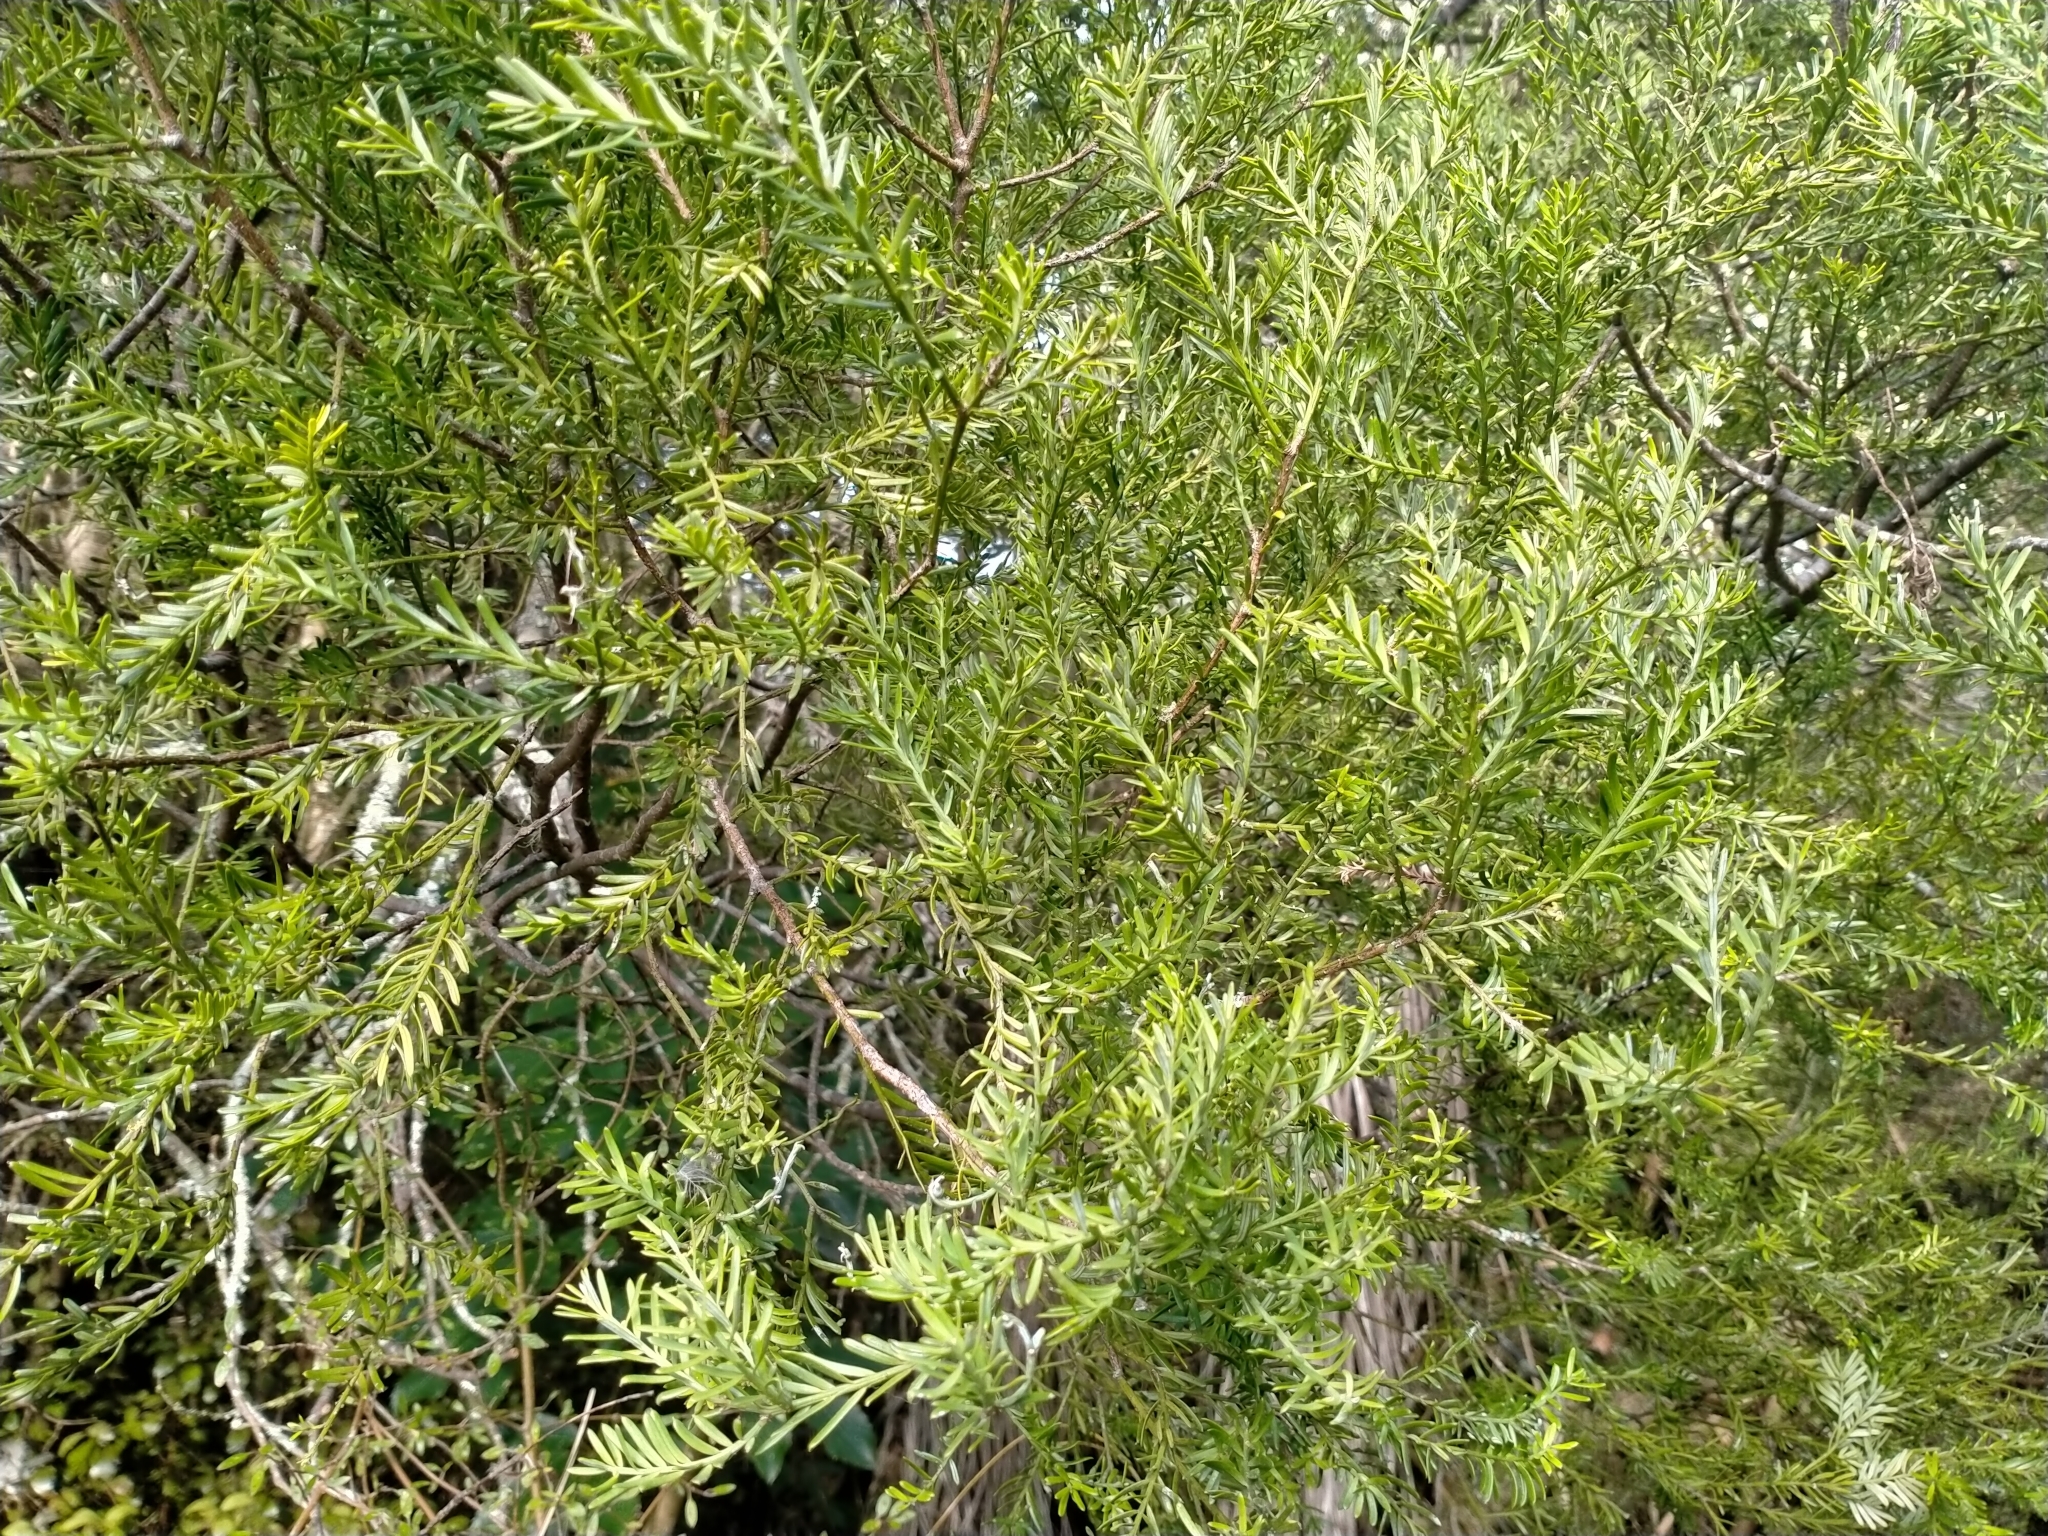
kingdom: Plantae
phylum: Tracheophyta
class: Pinopsida
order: Pinales
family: Podocarpaceae
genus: Prumnopitys
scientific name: Prumnopitys taxifolia
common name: Matai
